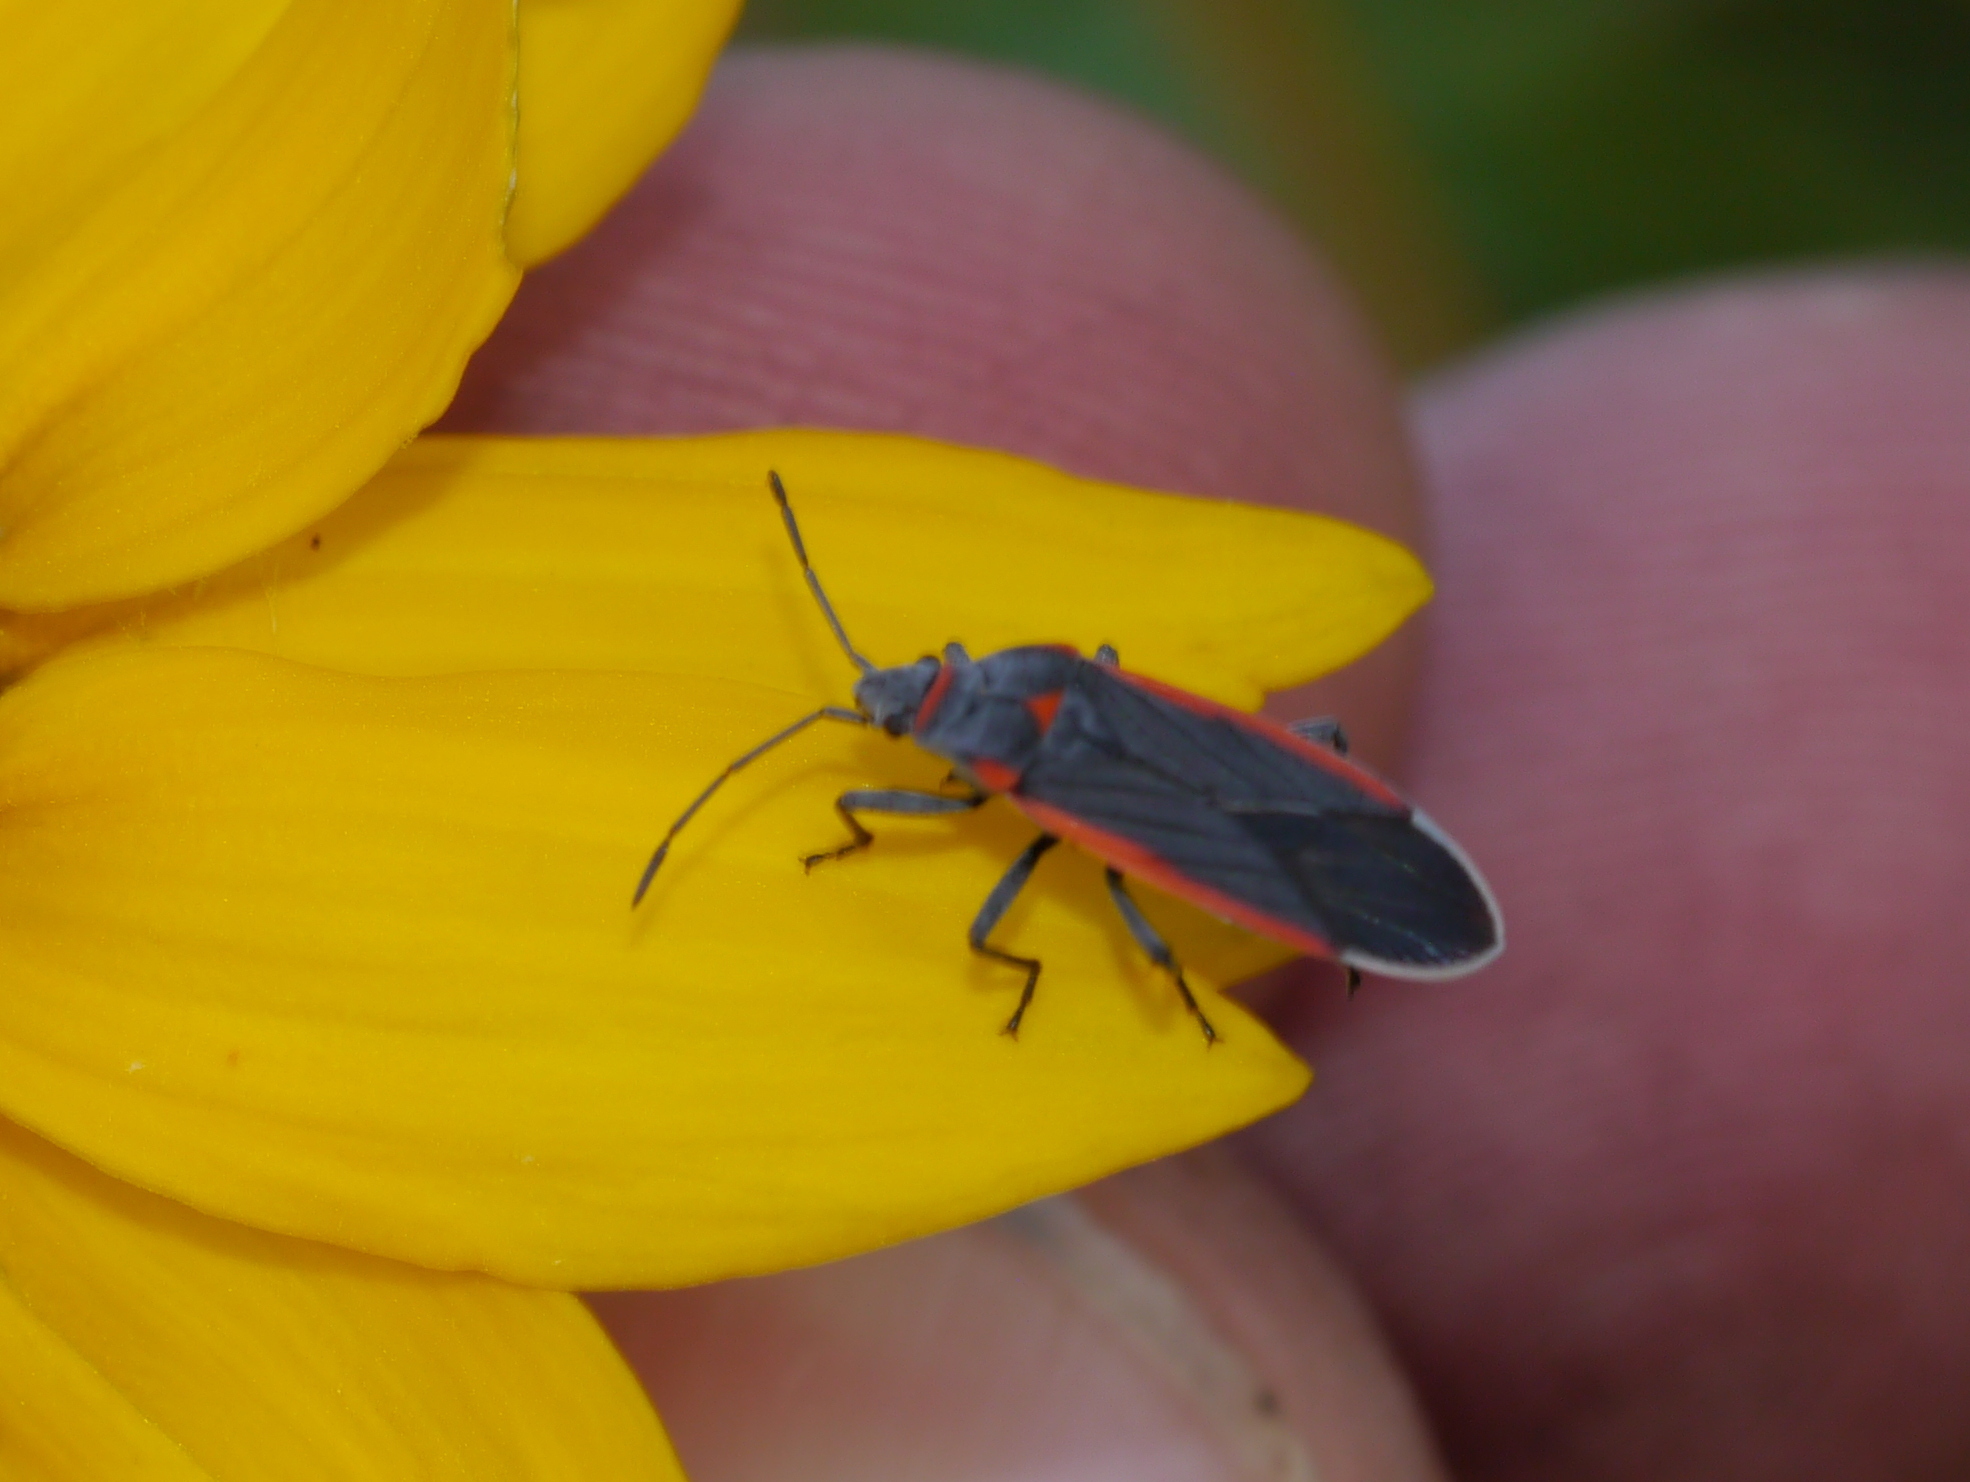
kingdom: Animalia
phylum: Arthropoda
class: Insecta
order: Hemiptera
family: Lygaeidae
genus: Melacoryphus
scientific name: Melacoryphus lateralis
